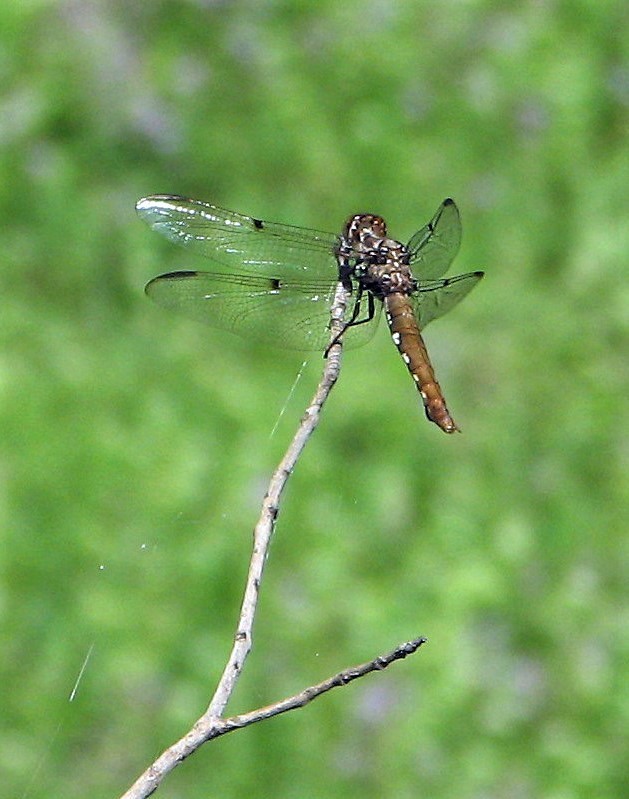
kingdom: Animalia
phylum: Arthropoda
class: Insecta
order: Odonata
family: Libellulidae
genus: Orthemis
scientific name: Orthemis nodiplaga
